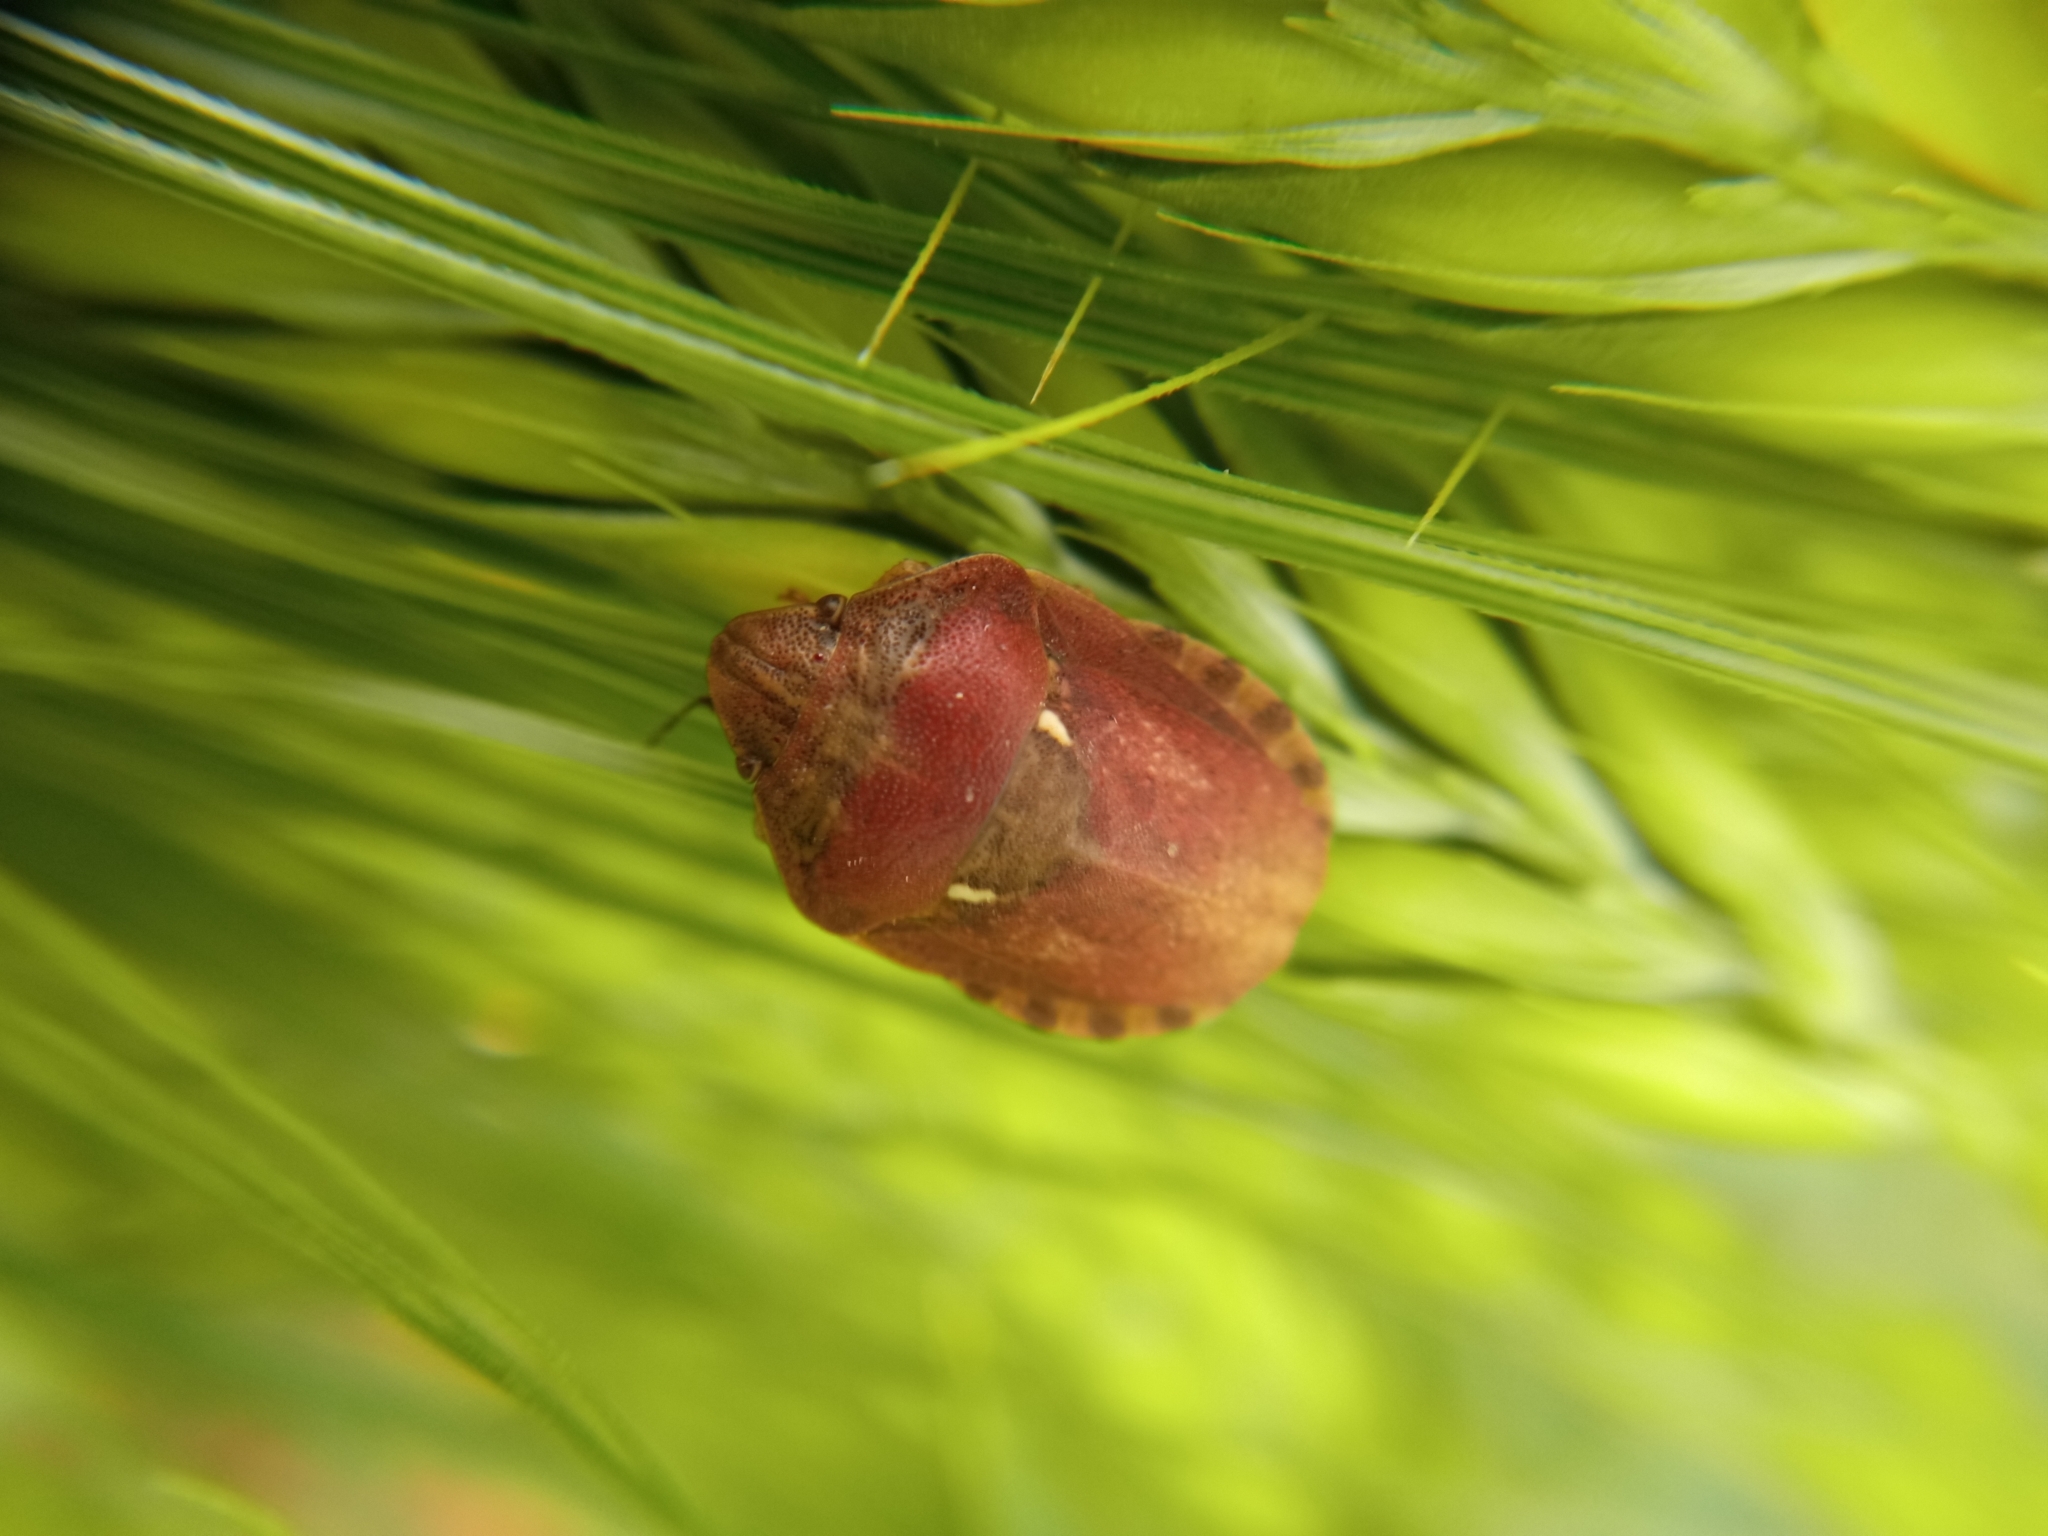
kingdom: Animalia
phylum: Arthropoda
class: Insecta
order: Hemiptera
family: Scutelleridae
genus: Eurygaster
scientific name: Eurygaster maura
